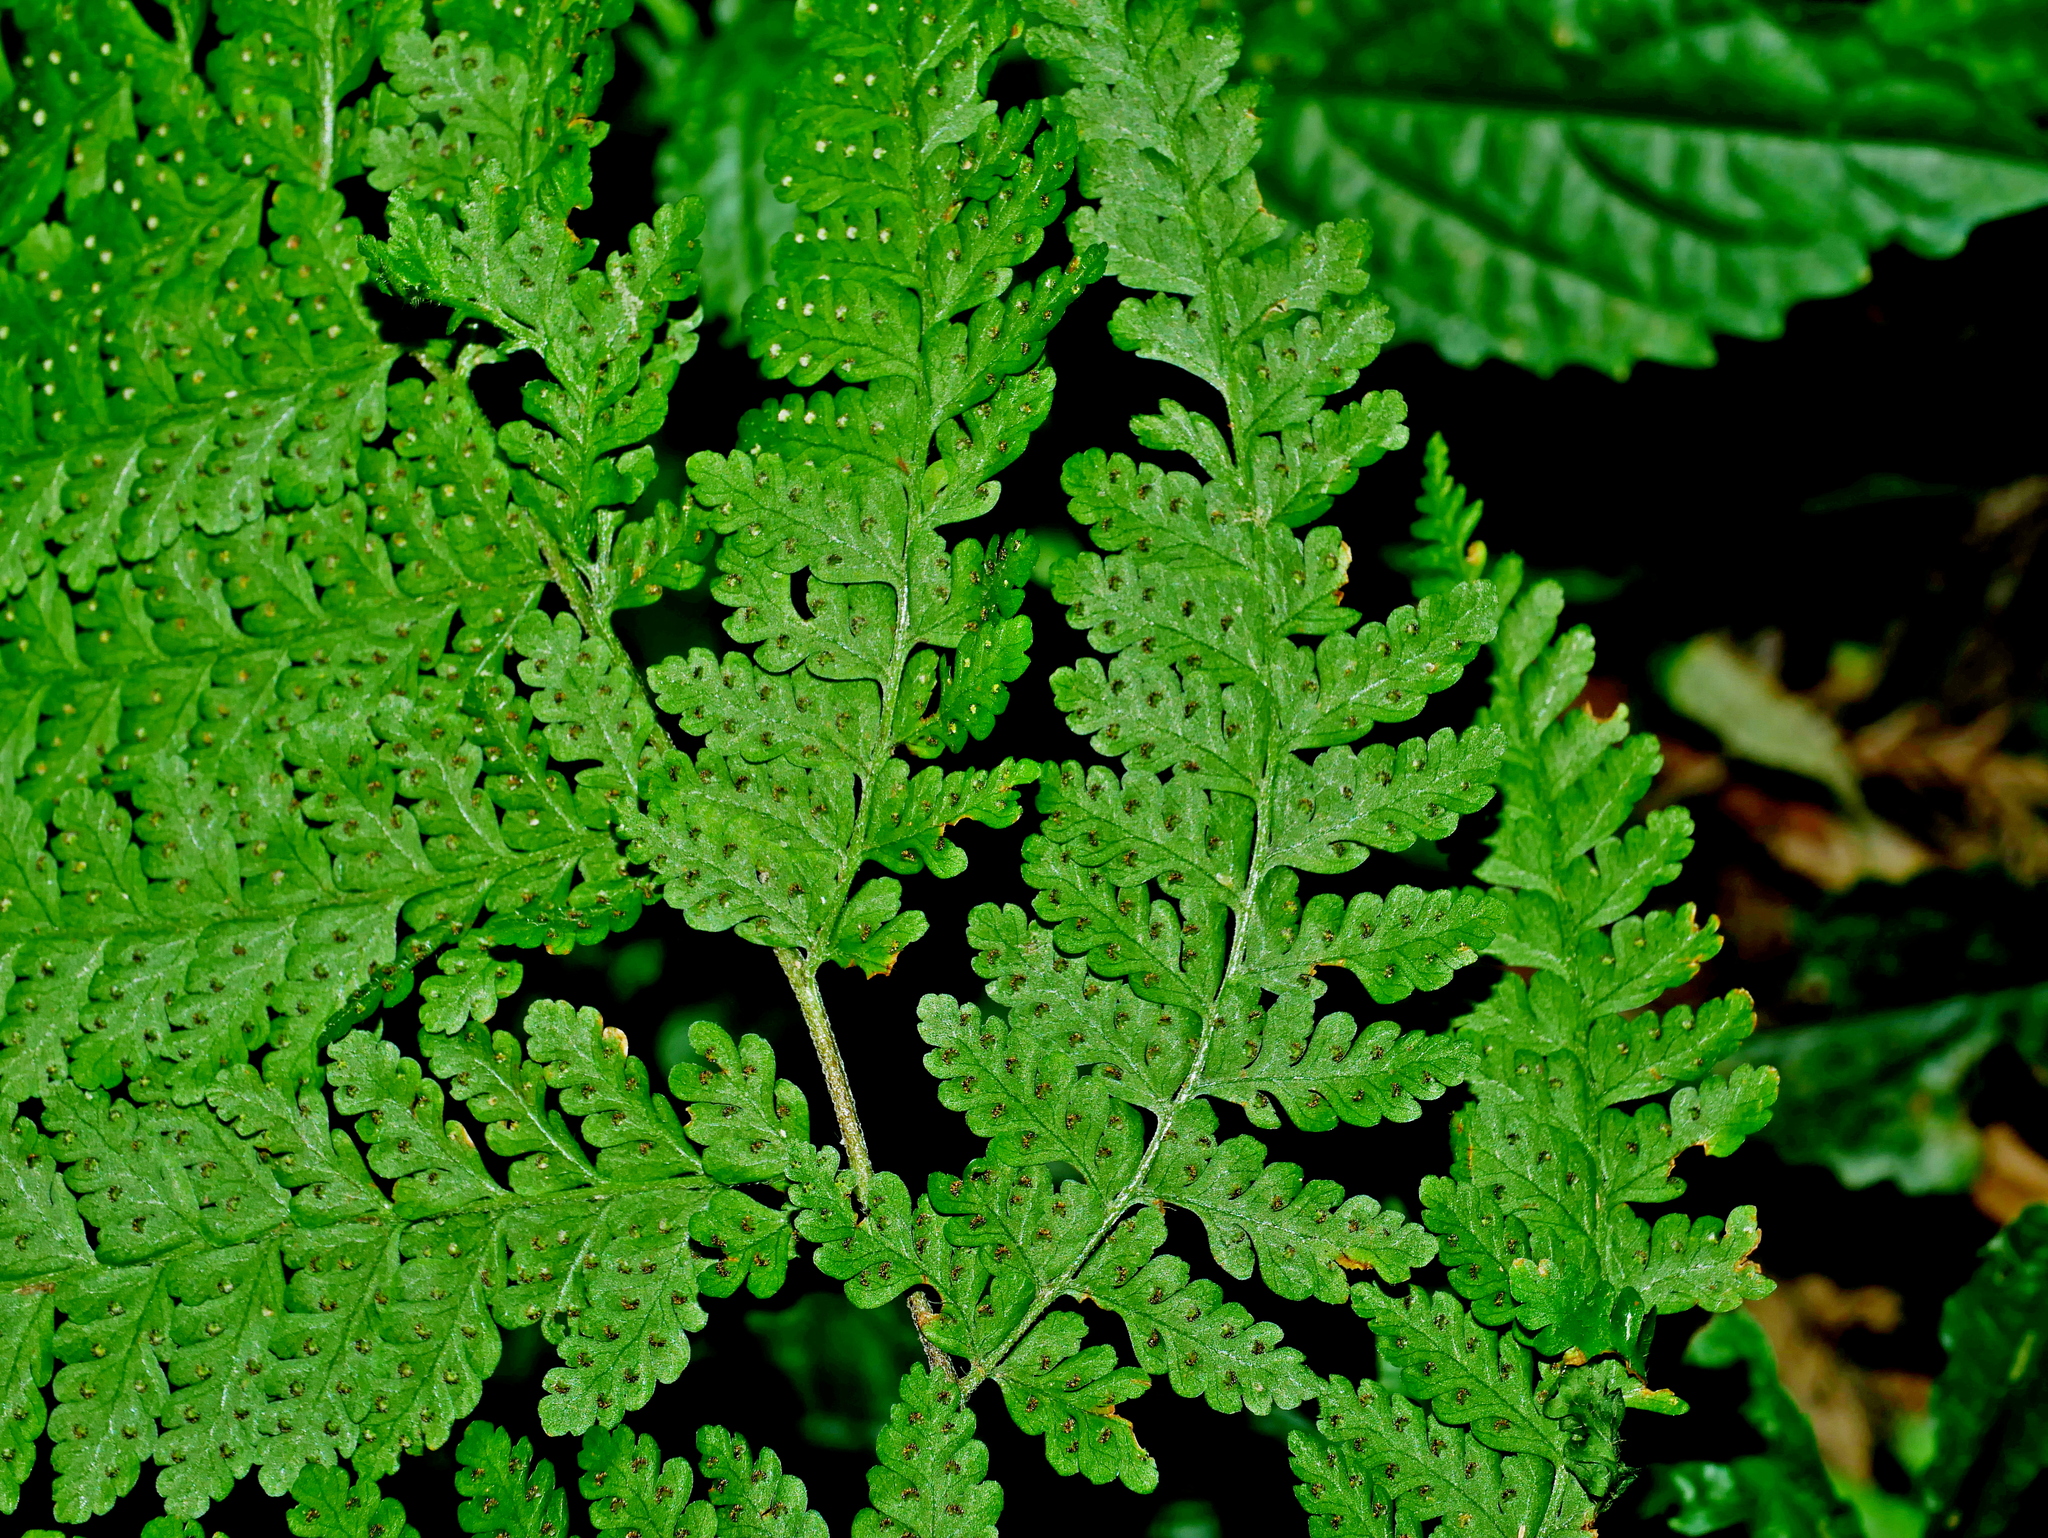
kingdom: Plantae
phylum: Tracheophyta
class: Polypodiopsida
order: Polypodiales
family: Dennstaedtiaceae
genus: Microlepia
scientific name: Microlepia tenera
